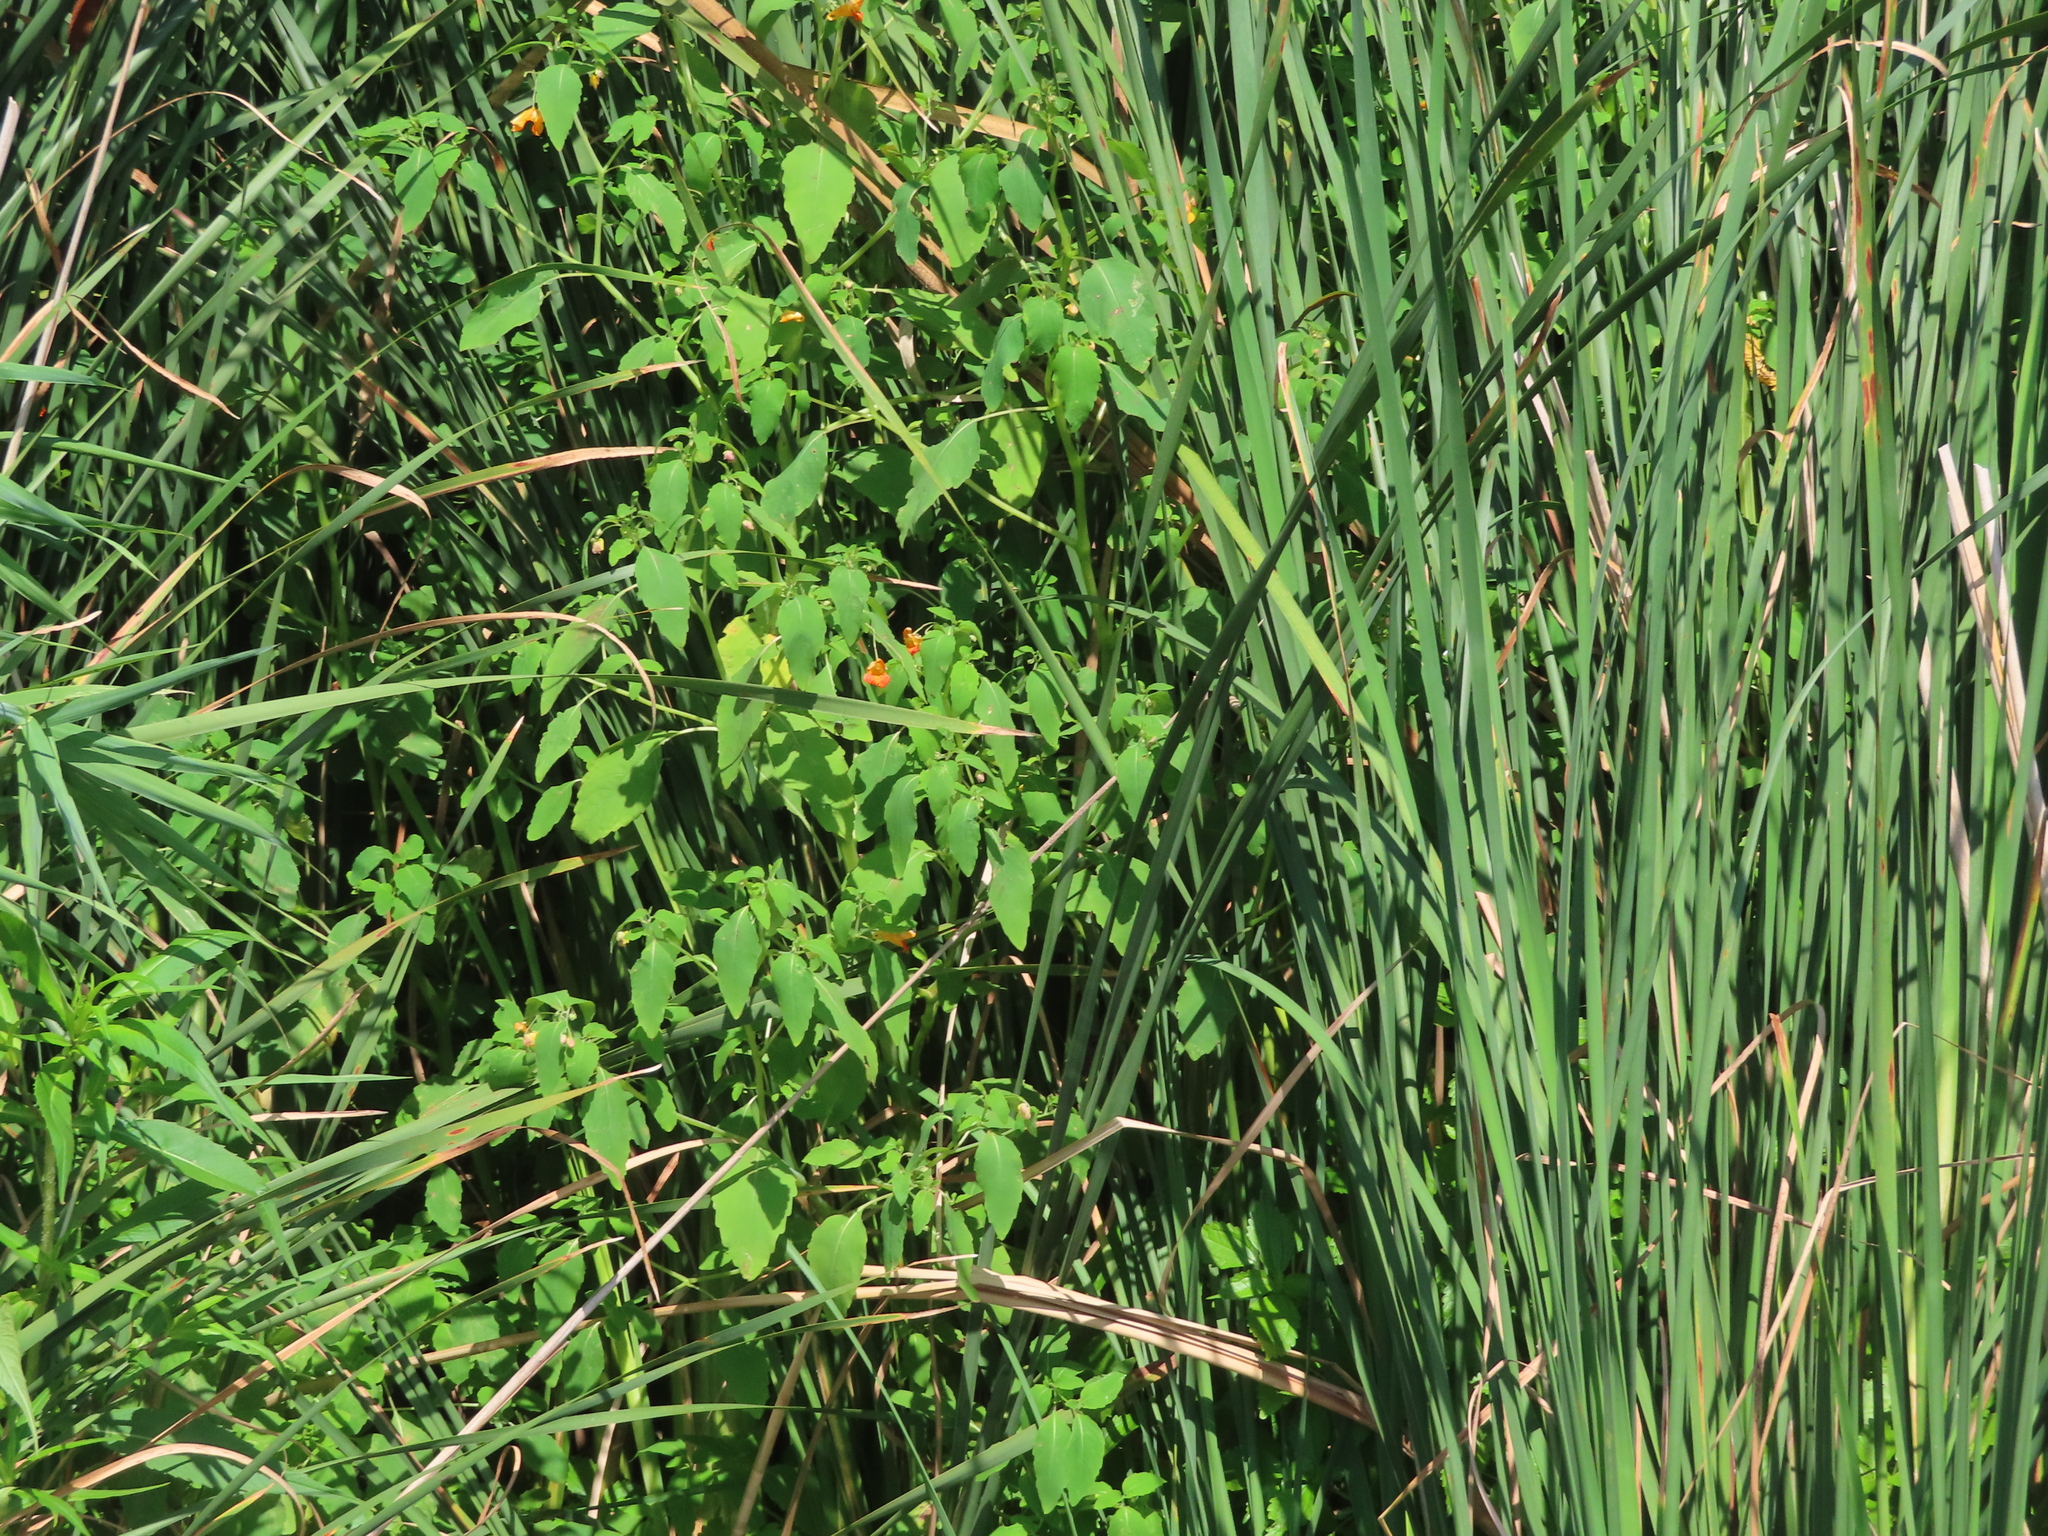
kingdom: Plantae
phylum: Tracheophyta
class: Magnoliopsida
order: Ericales
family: Balsaminaceae
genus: Impatiens
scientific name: Impatiens capensis
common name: Orange balsam
